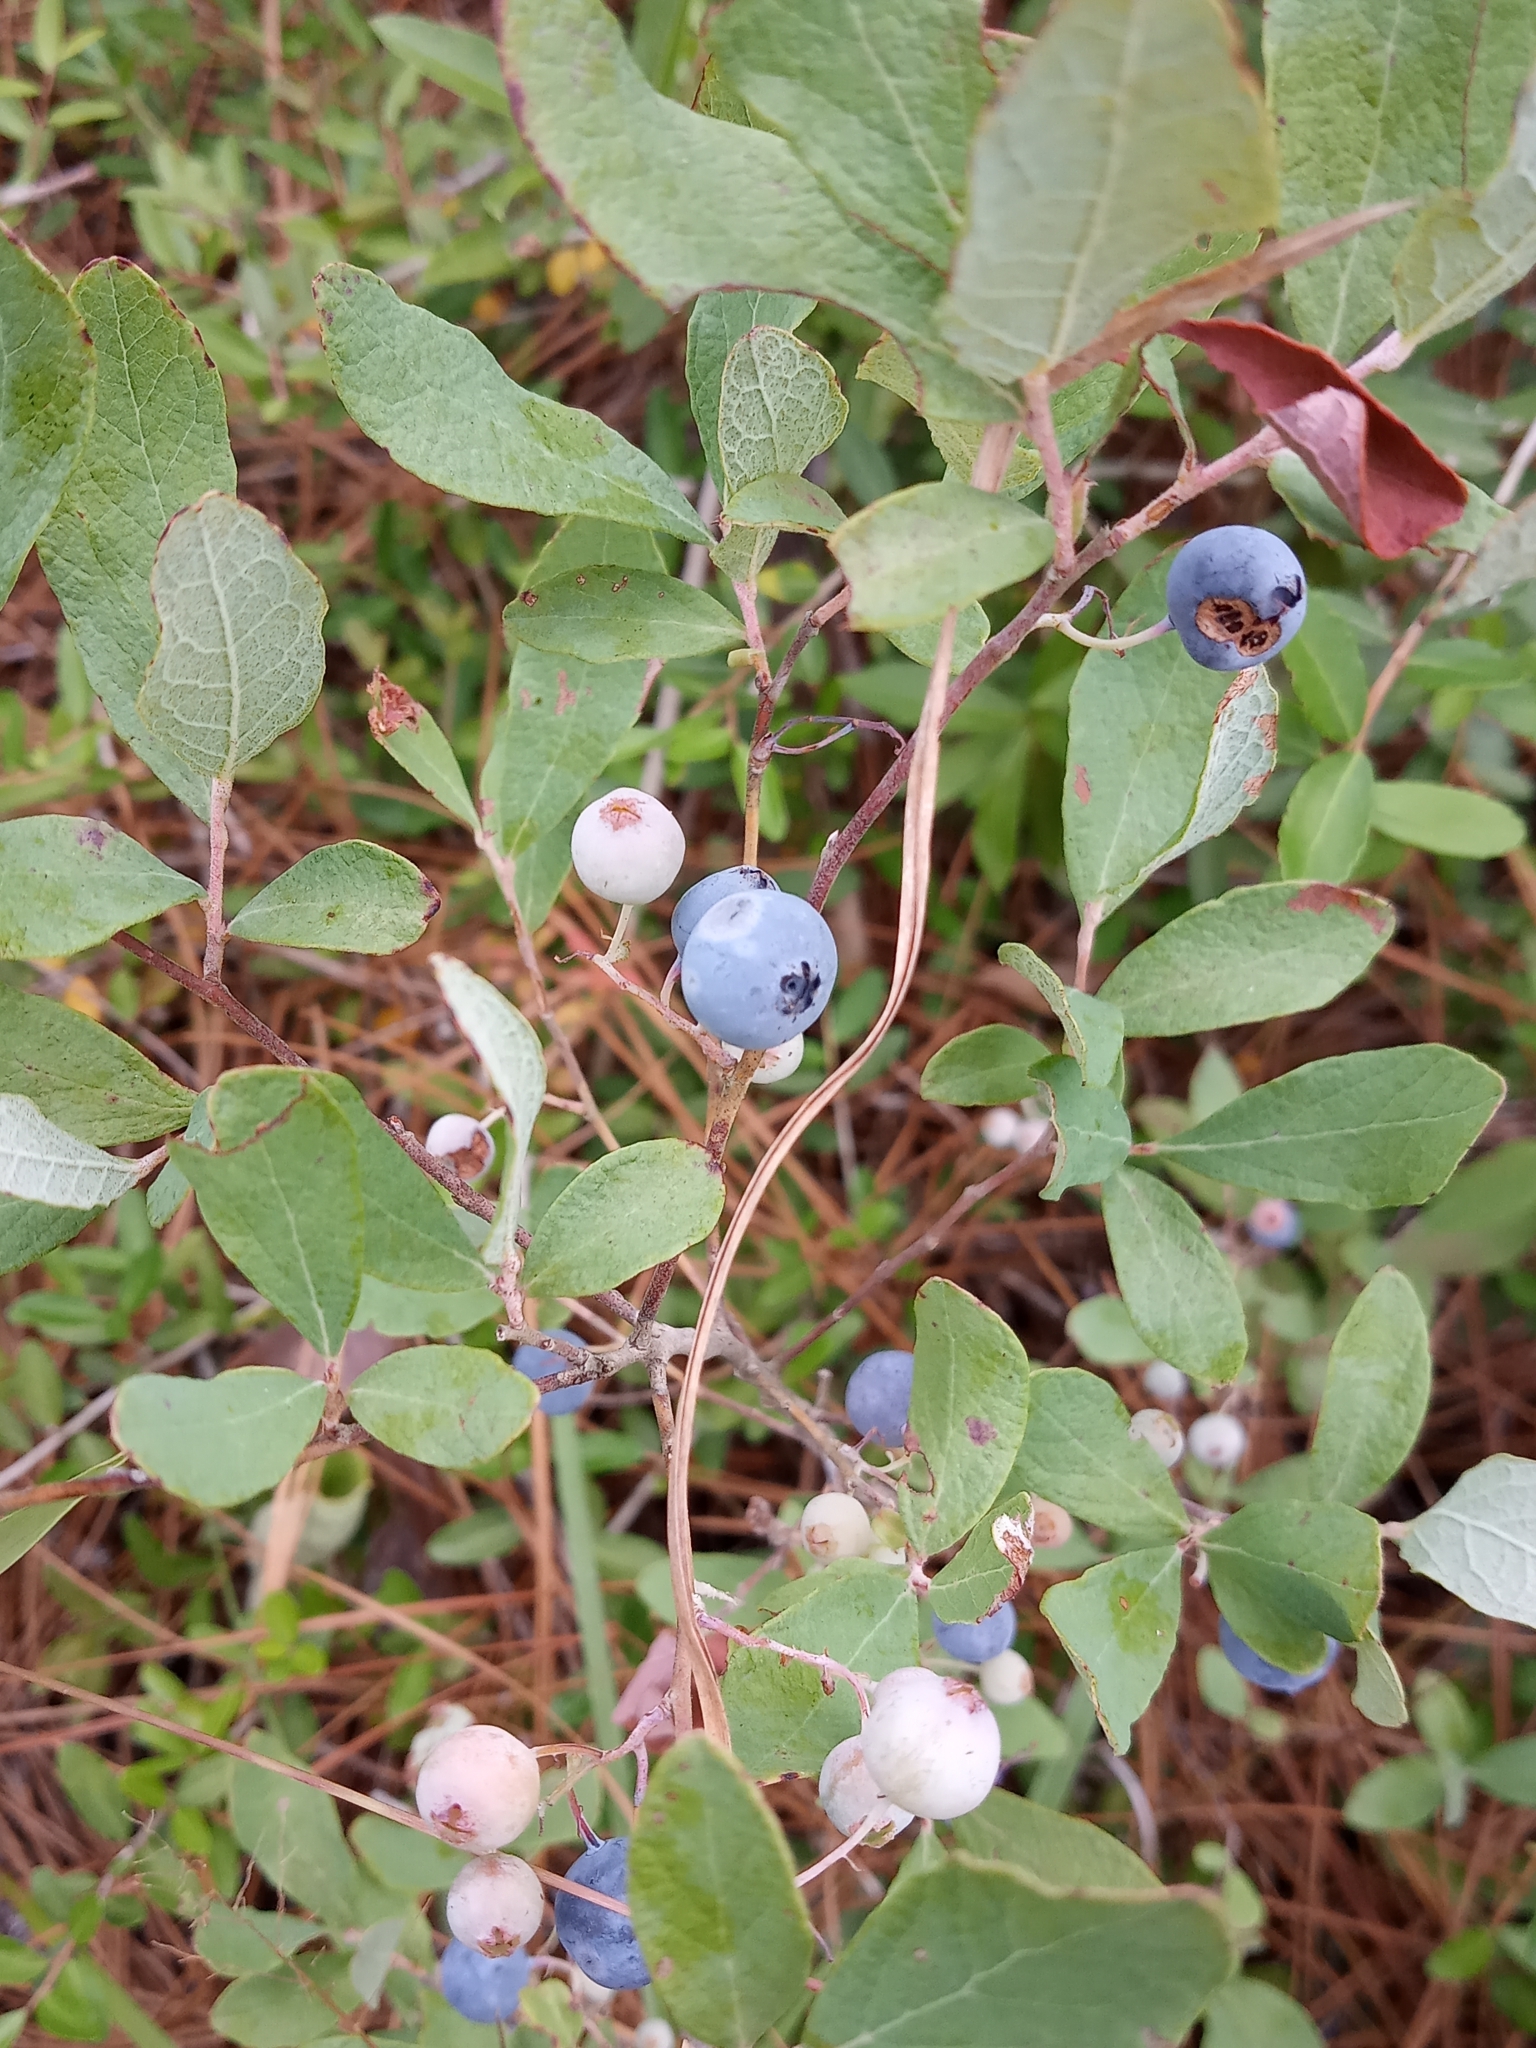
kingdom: Plantae
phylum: Tracheophyta
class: Magnoliopsida
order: Ericales
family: Ericaceae
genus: Gaylussacia
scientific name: Gaylussacia nana
